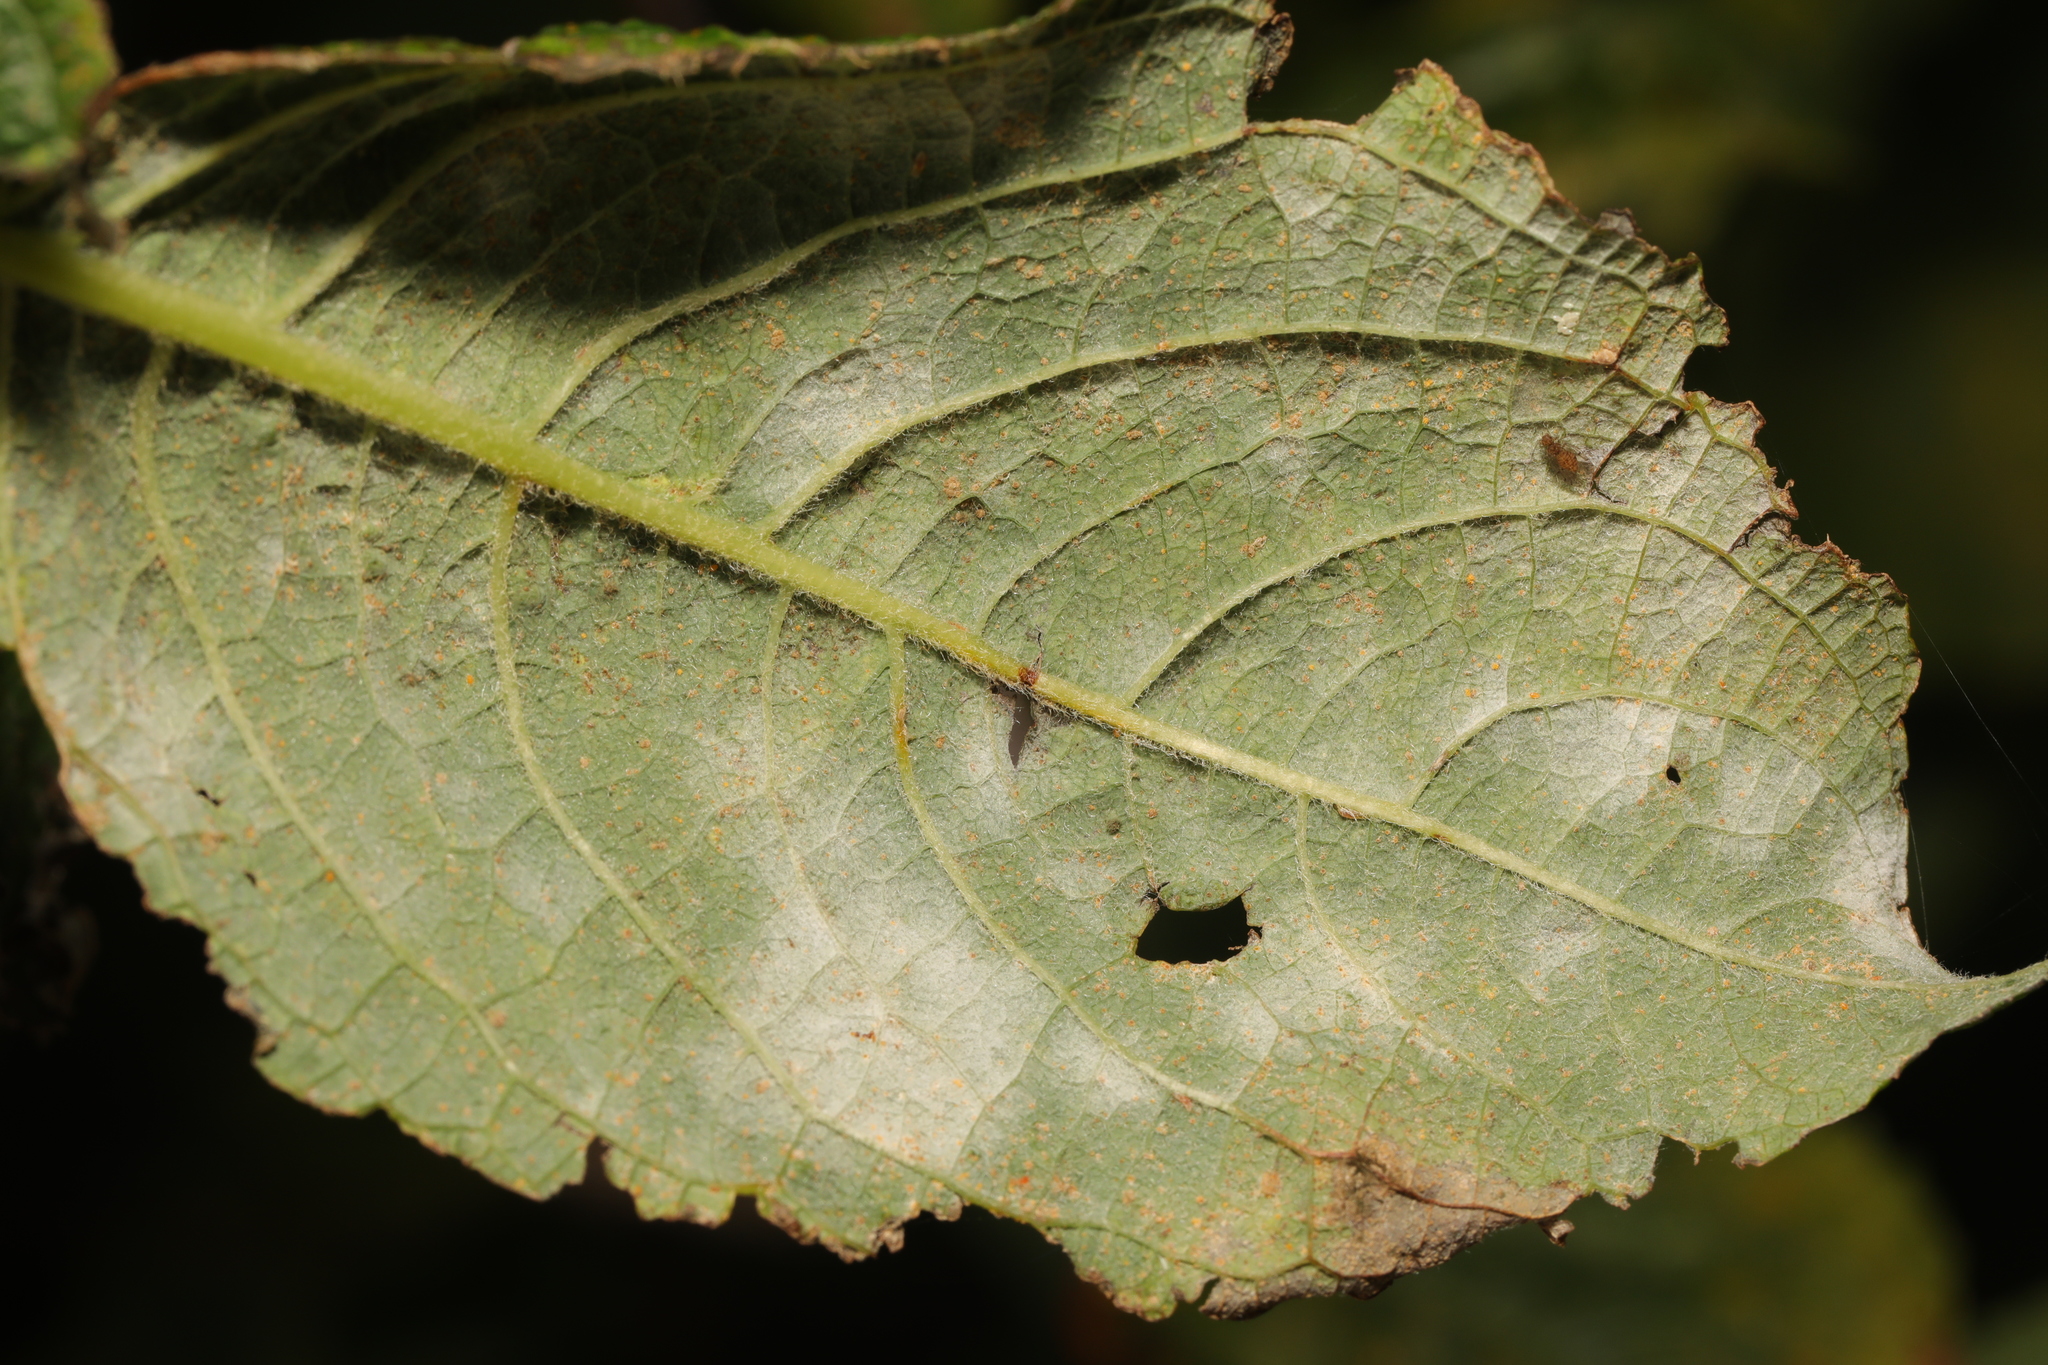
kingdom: Fungi
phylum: Ascomycota
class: Leotiomycetes
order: Helotiales
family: Erysiphaceae
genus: Erysiphe
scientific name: Erysiphe capreae
